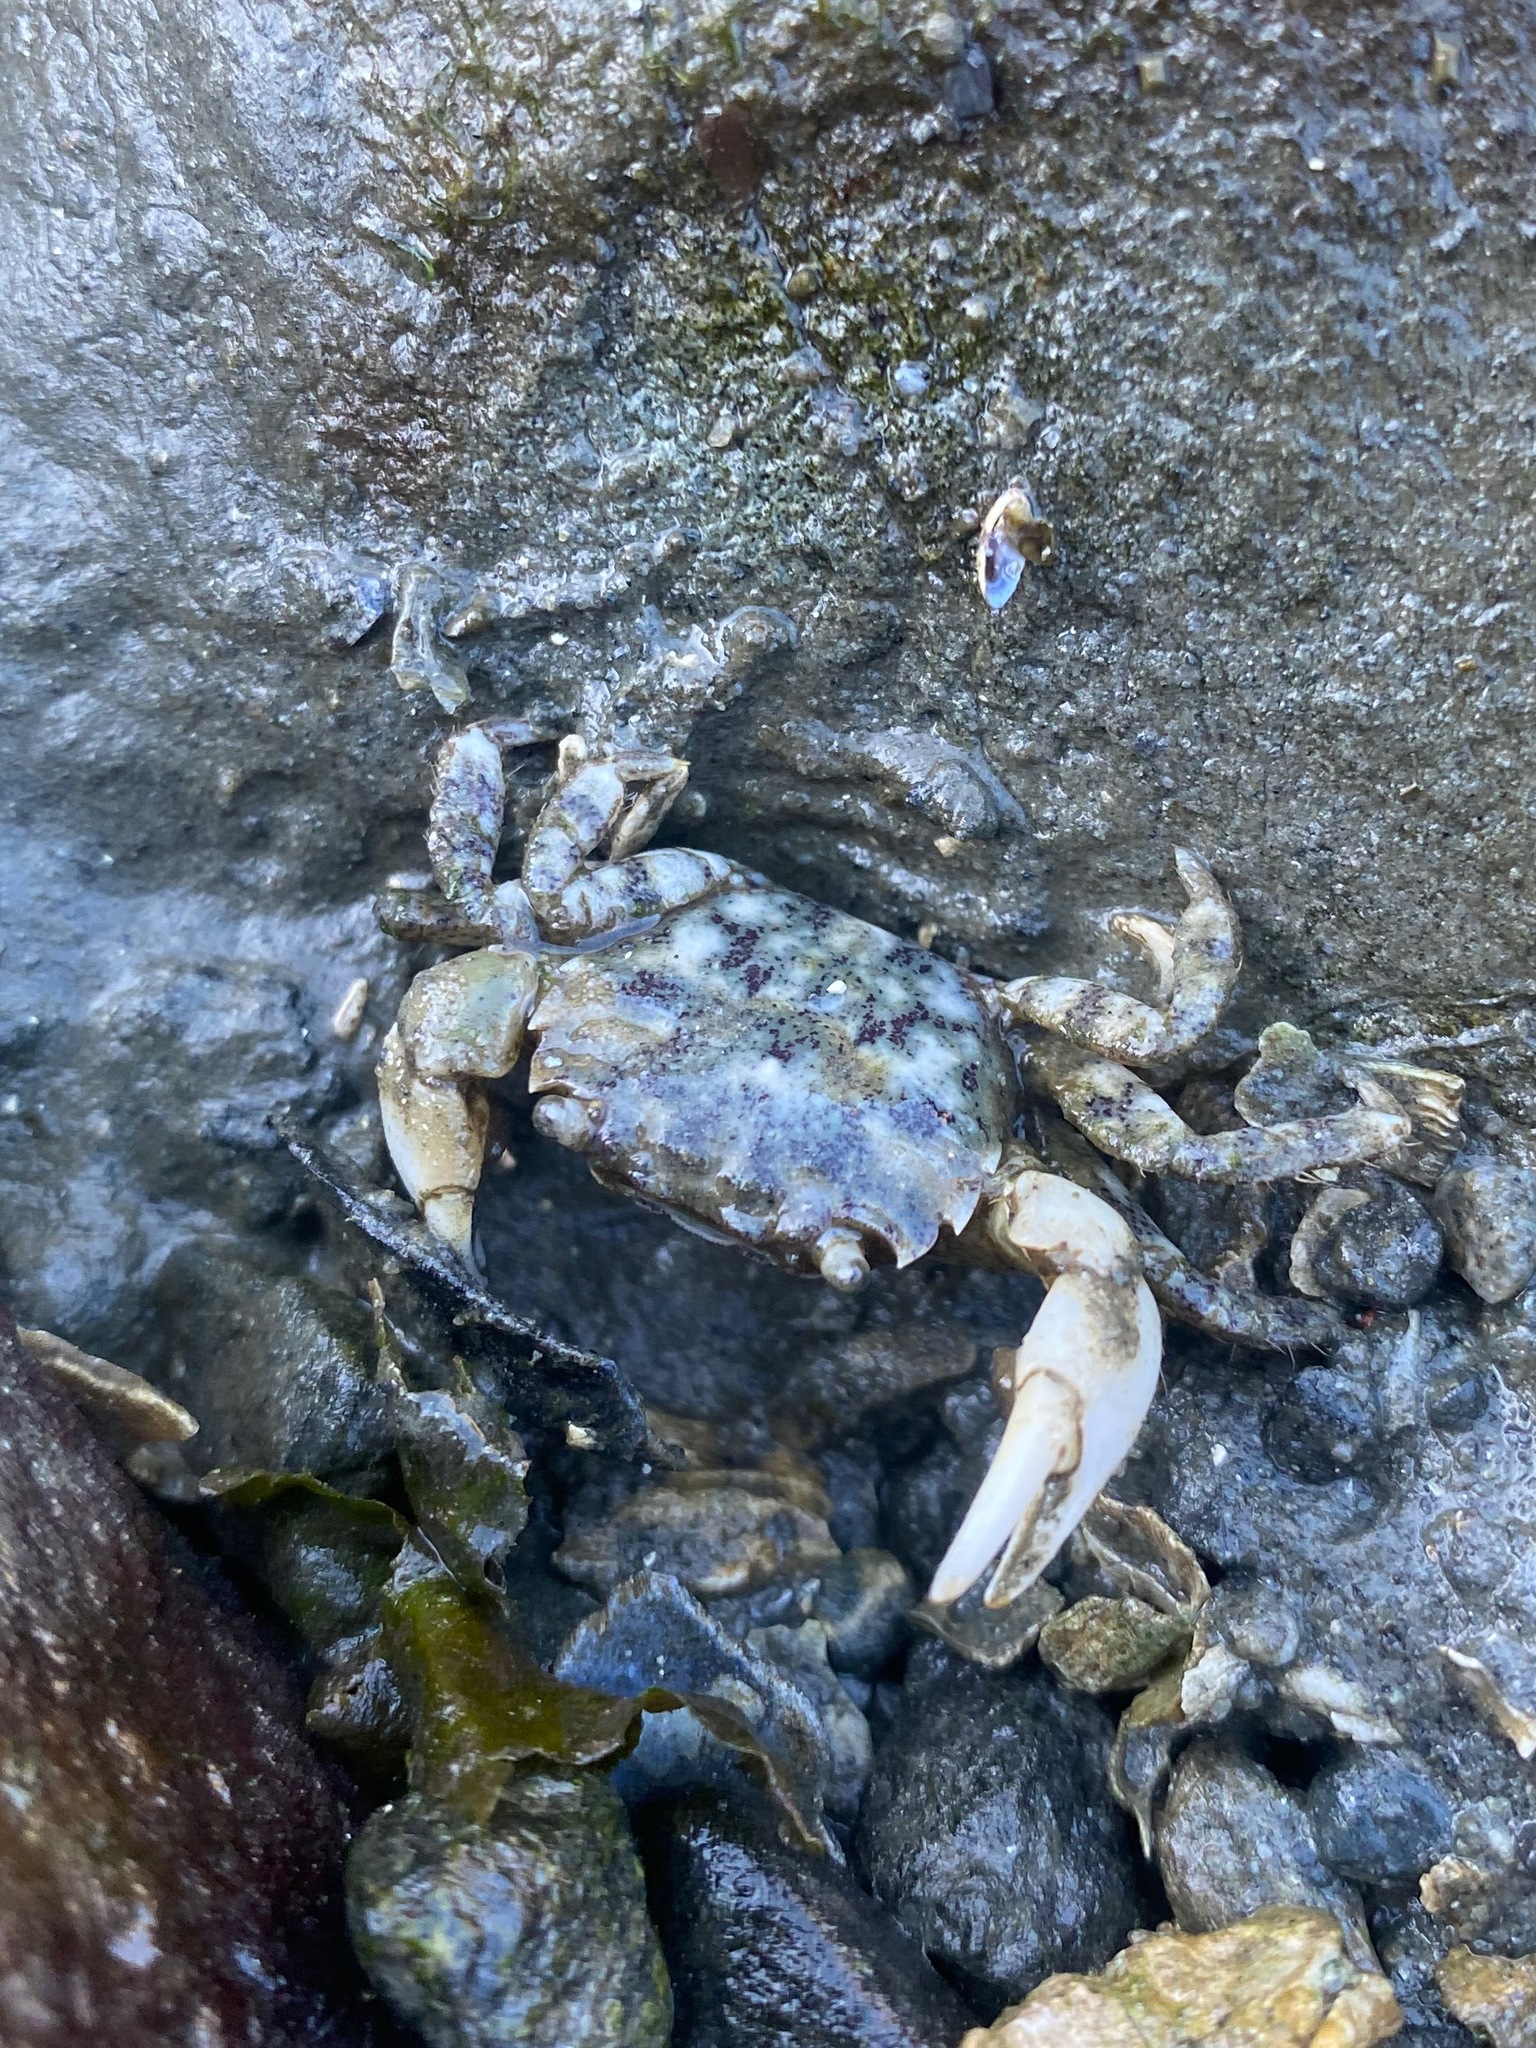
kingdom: Animalia
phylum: Arthropoda
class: Malacostraca
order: Decapoda
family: Varunidae
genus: Hemigrapsus
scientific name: Hemigrapsus oregonensis
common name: Yellow shore crab
